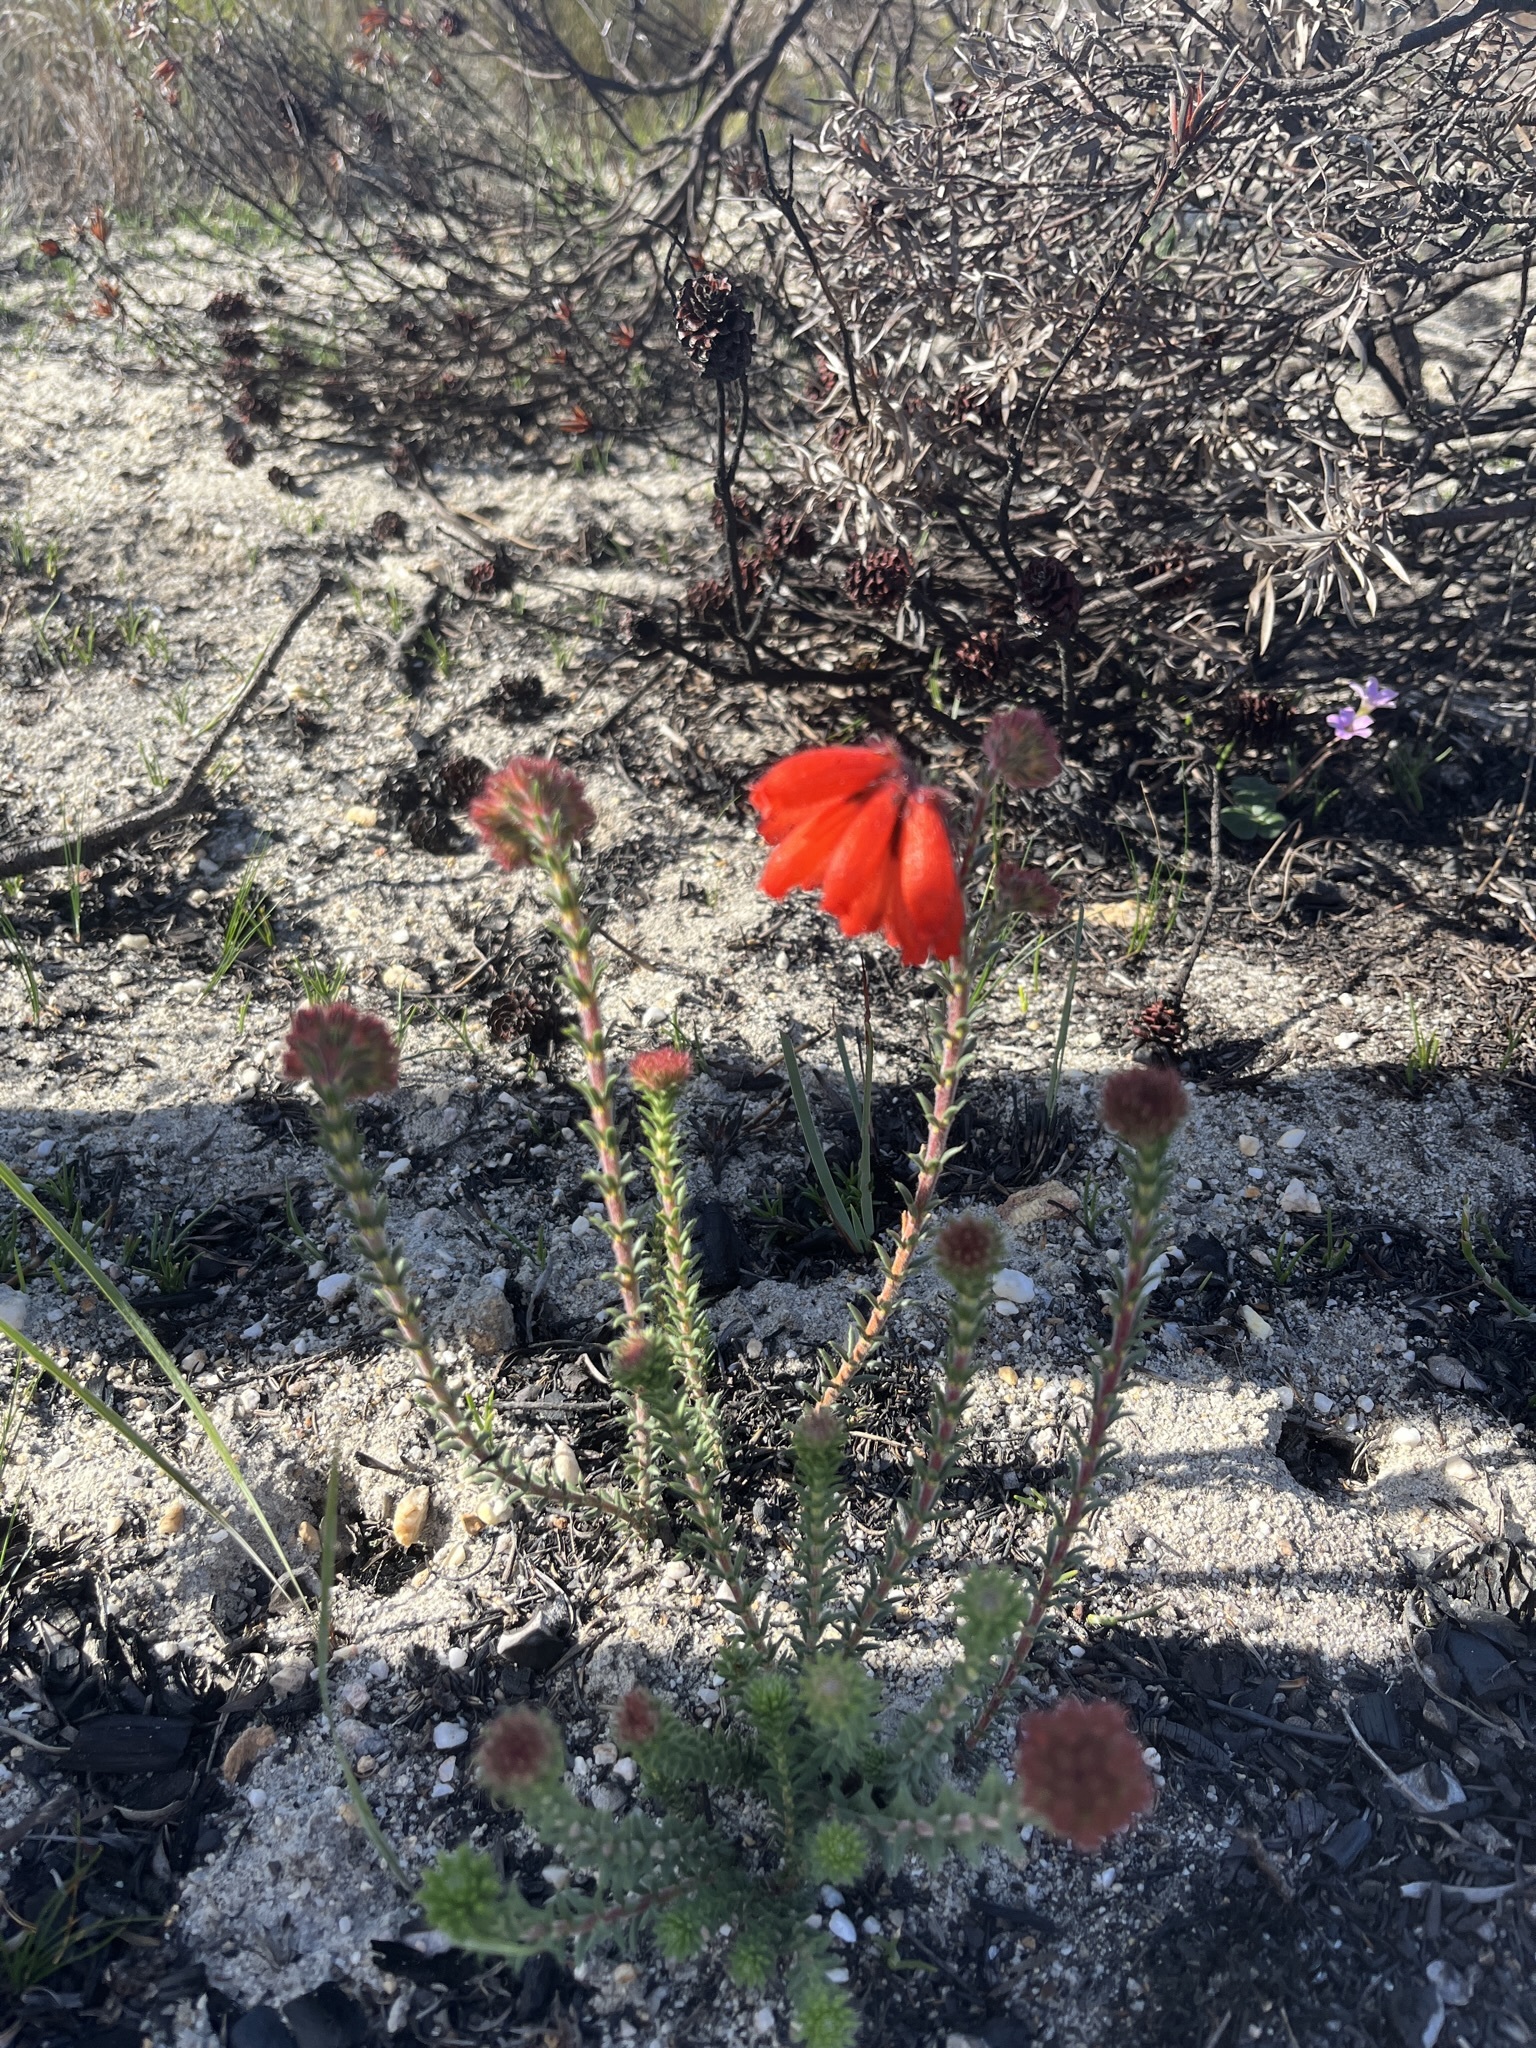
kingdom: Plantae
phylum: Tracheophyta
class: Magnoliopsida
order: Ericales
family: Ericaceae
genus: Erica
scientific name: Erica cerinthoides
